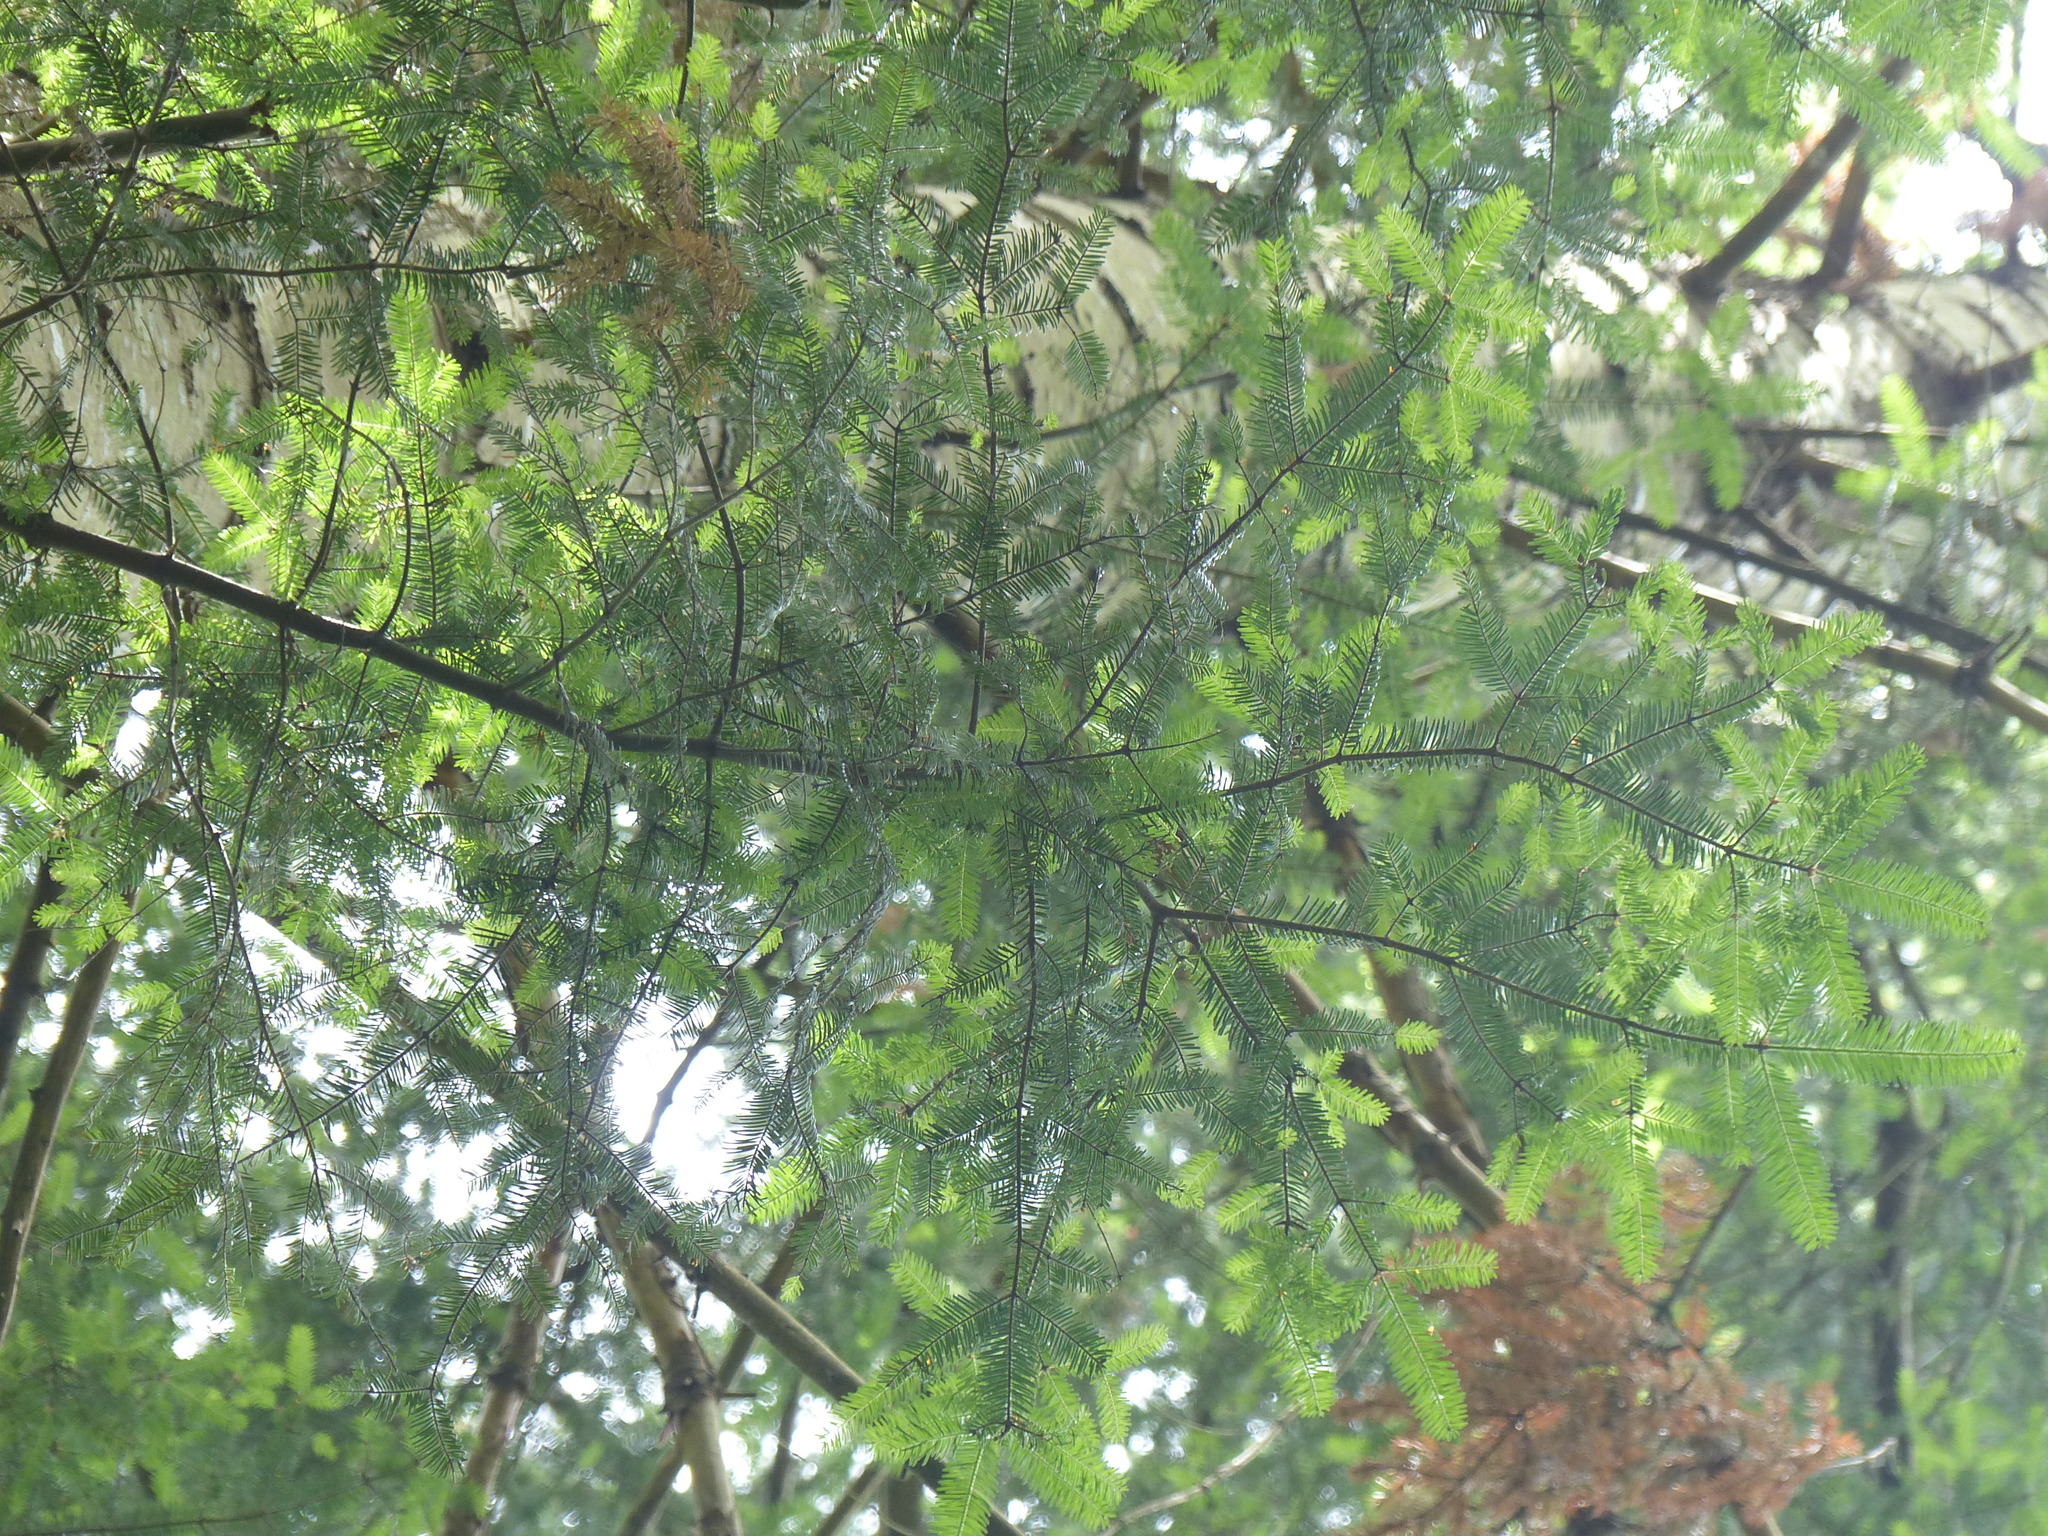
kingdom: Plantae
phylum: Tracheophyta
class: Pinopsida
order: Pinales
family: Pinaceae
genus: Abies
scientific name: Abies grandis
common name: Giant fir
